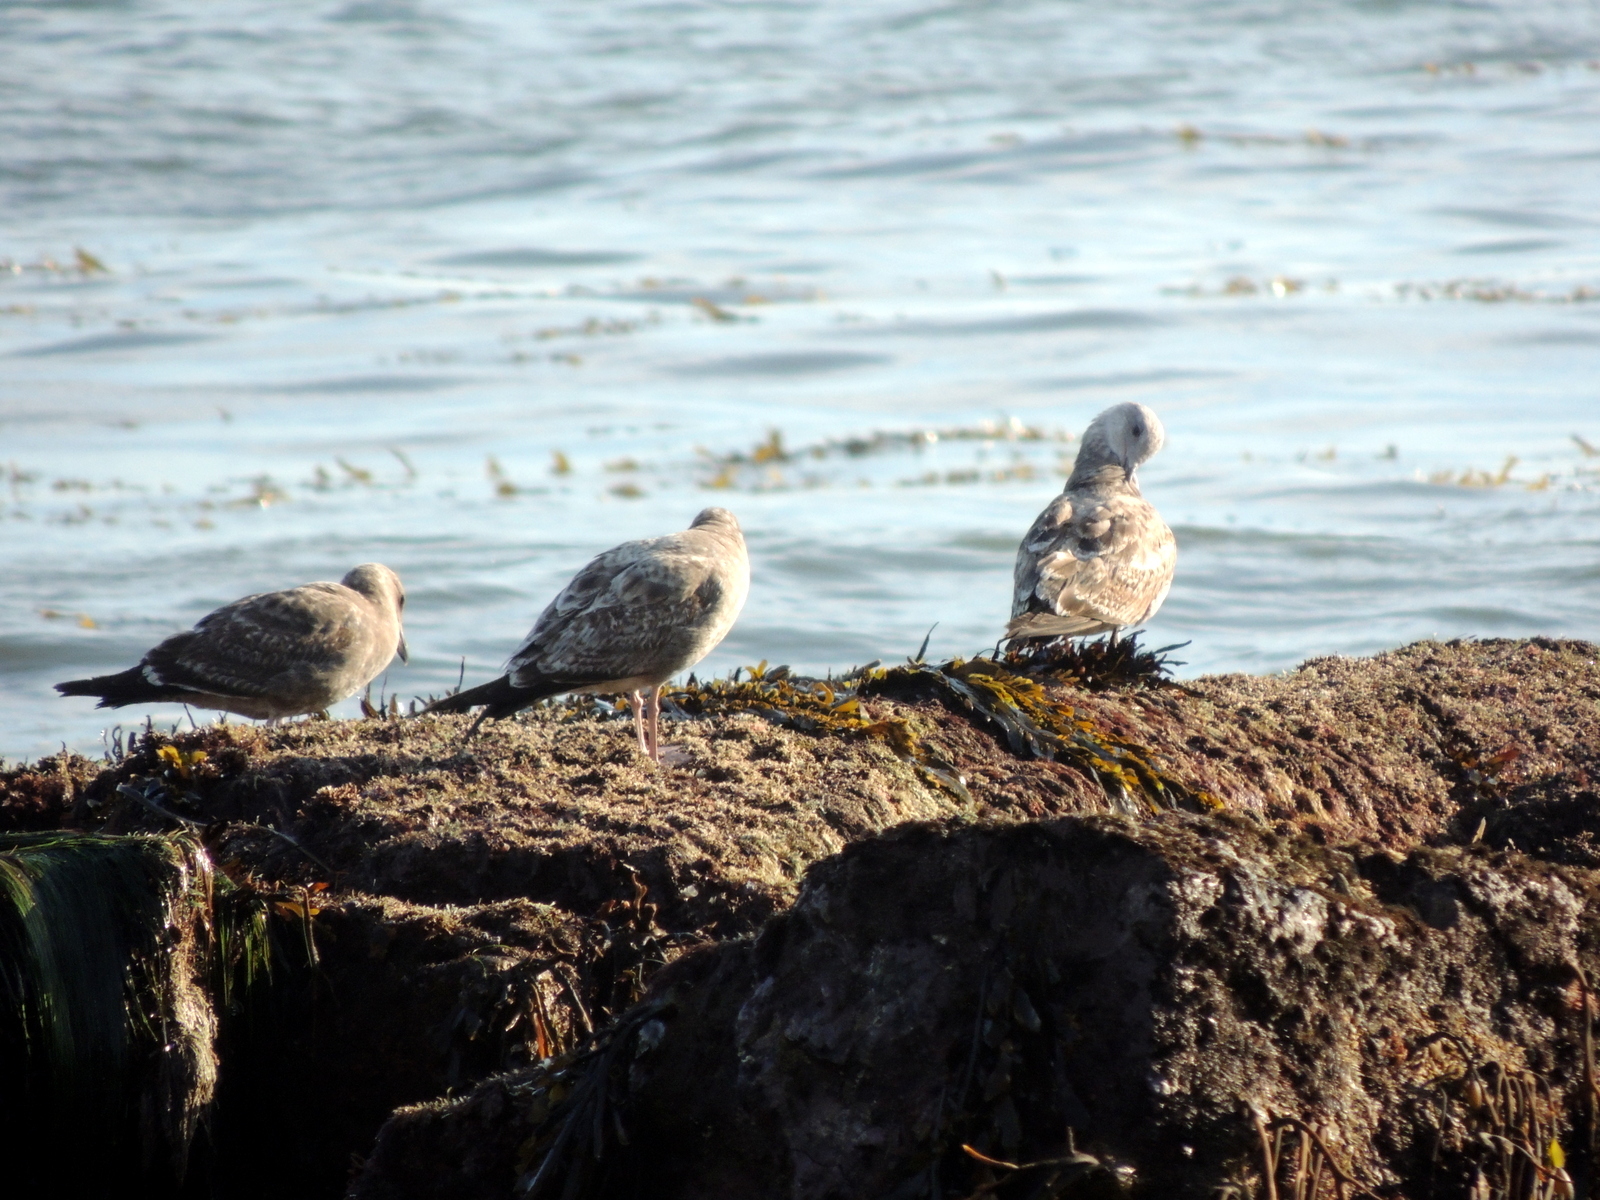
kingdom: Animalia
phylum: Chordata
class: Aves
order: Charadriiformes
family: Laridae
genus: Larus
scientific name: Larus occidentalis
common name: Western gull
